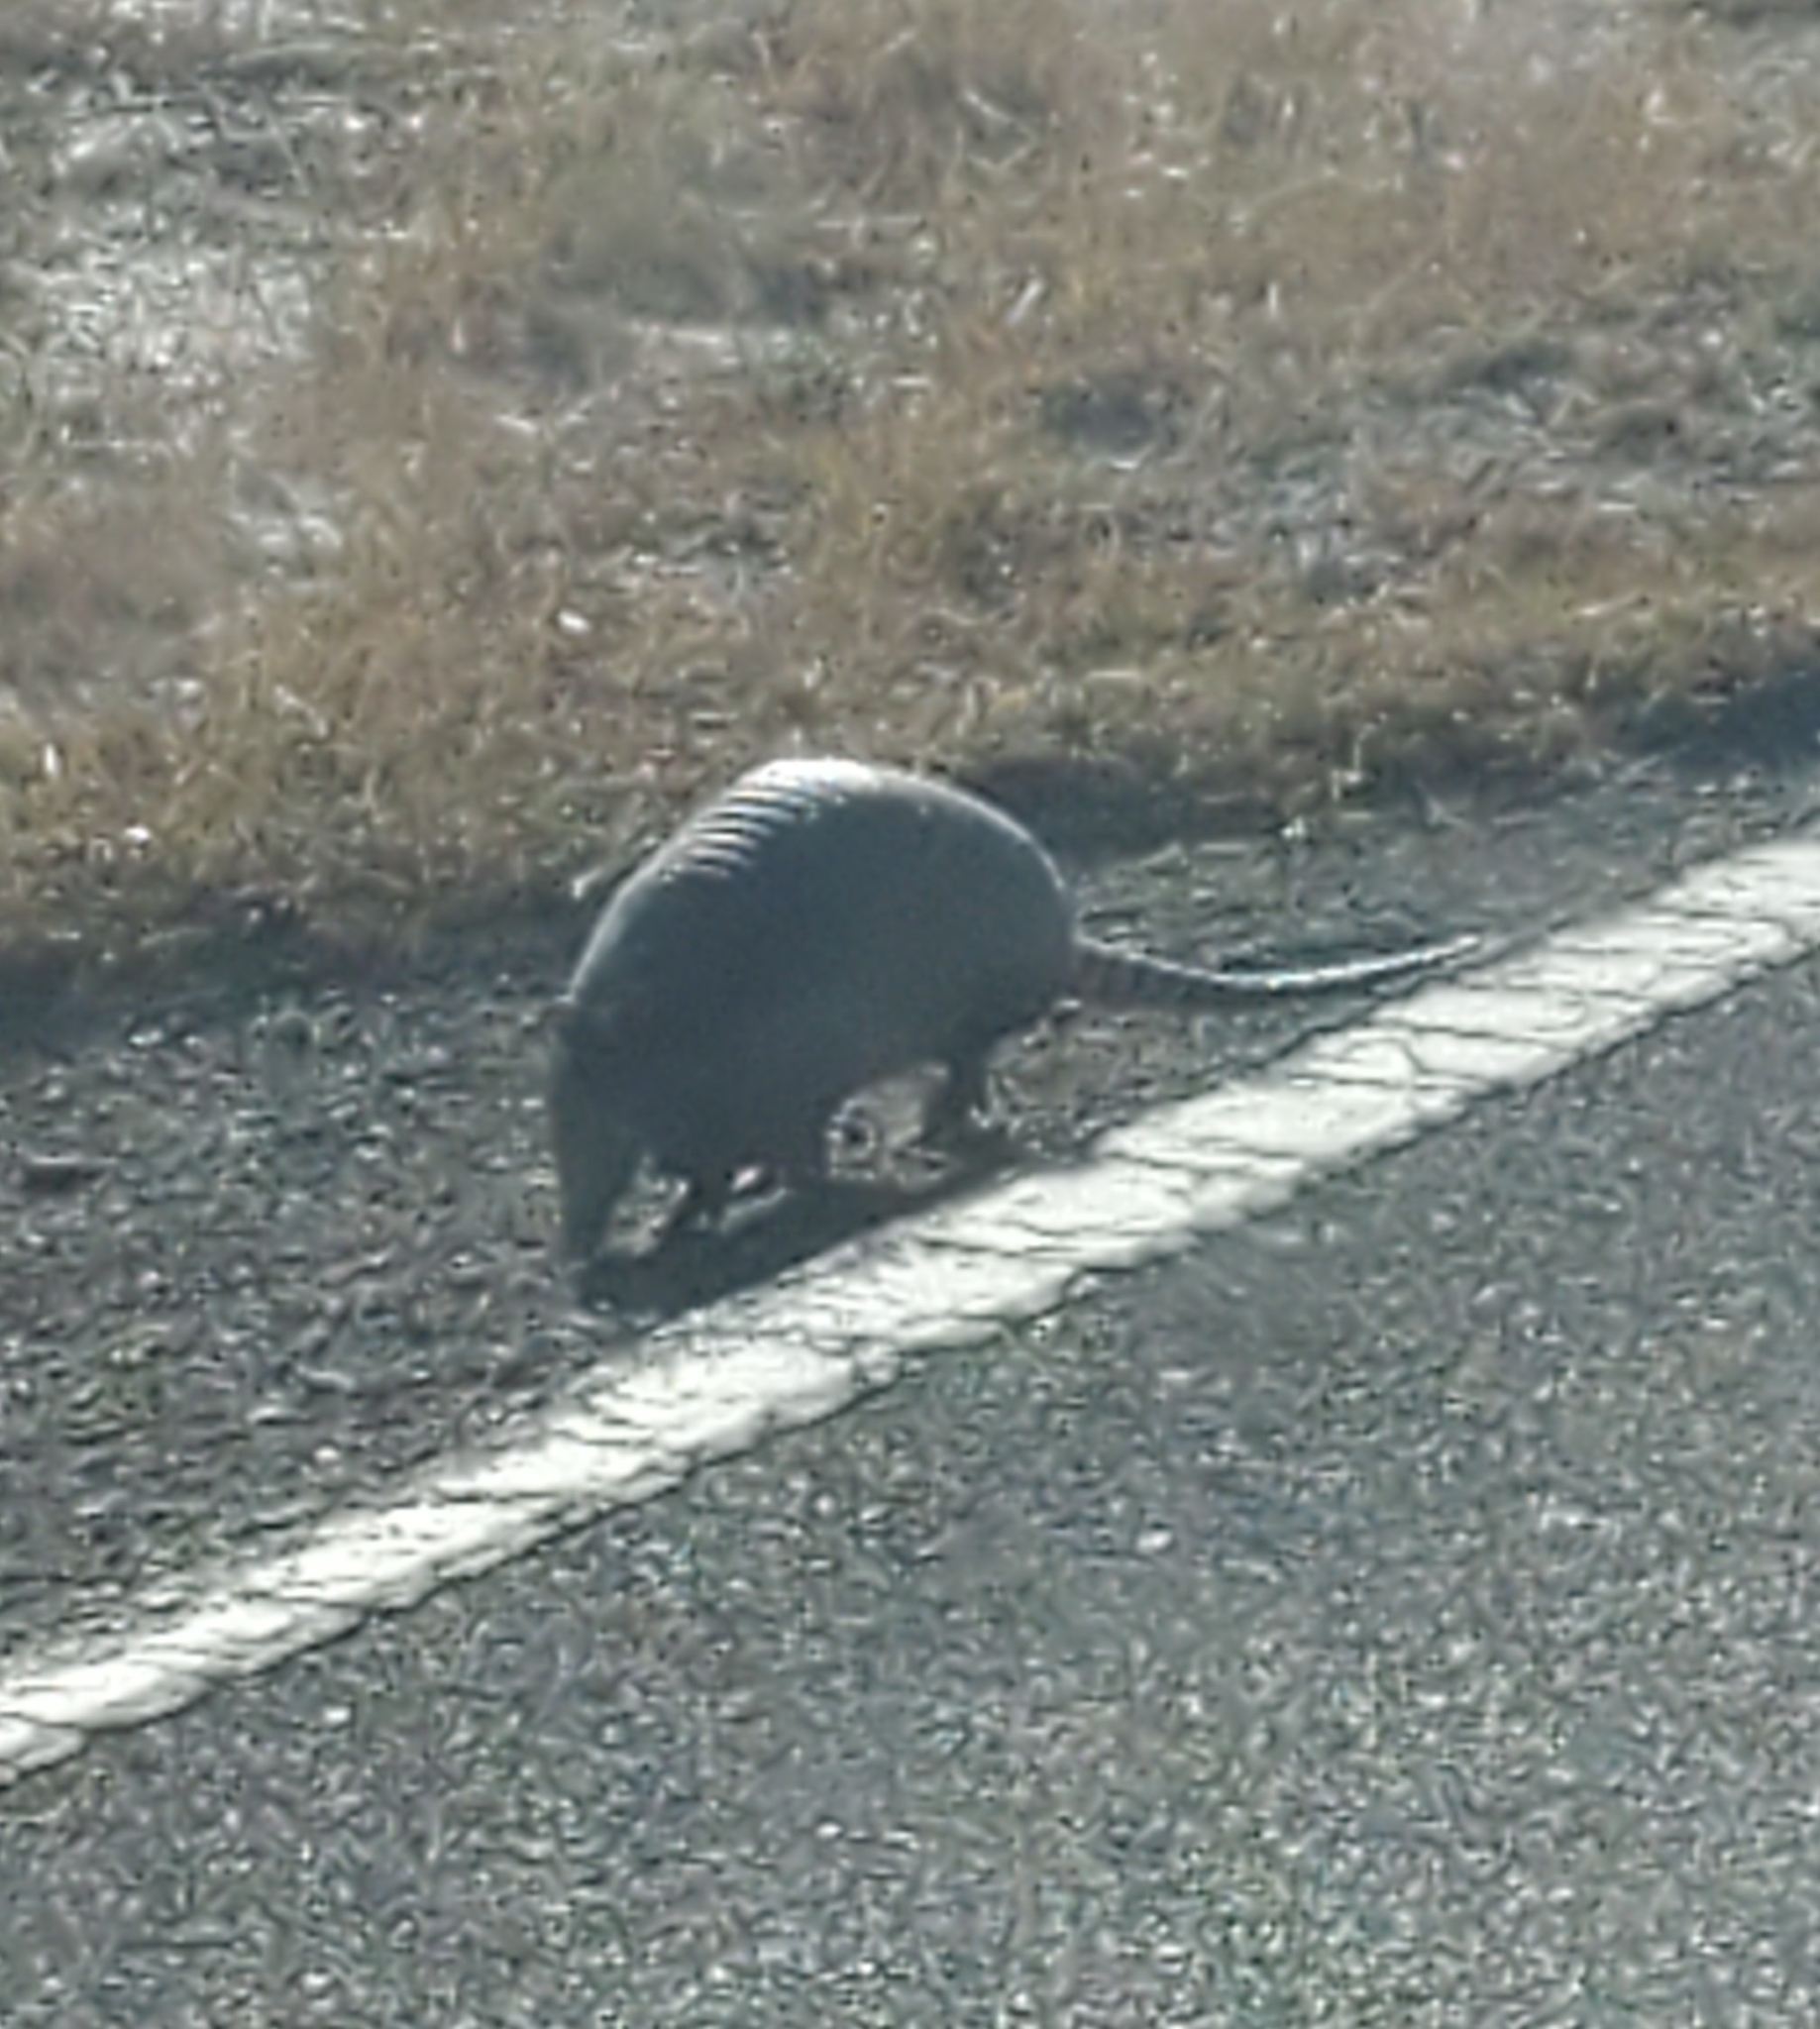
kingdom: Animalia
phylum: Chordata
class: Mammalia
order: Cingulata
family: Dasypodidae
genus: Dasypus
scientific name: Dasypus novemcinctus
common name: Nine-banded armadillo
